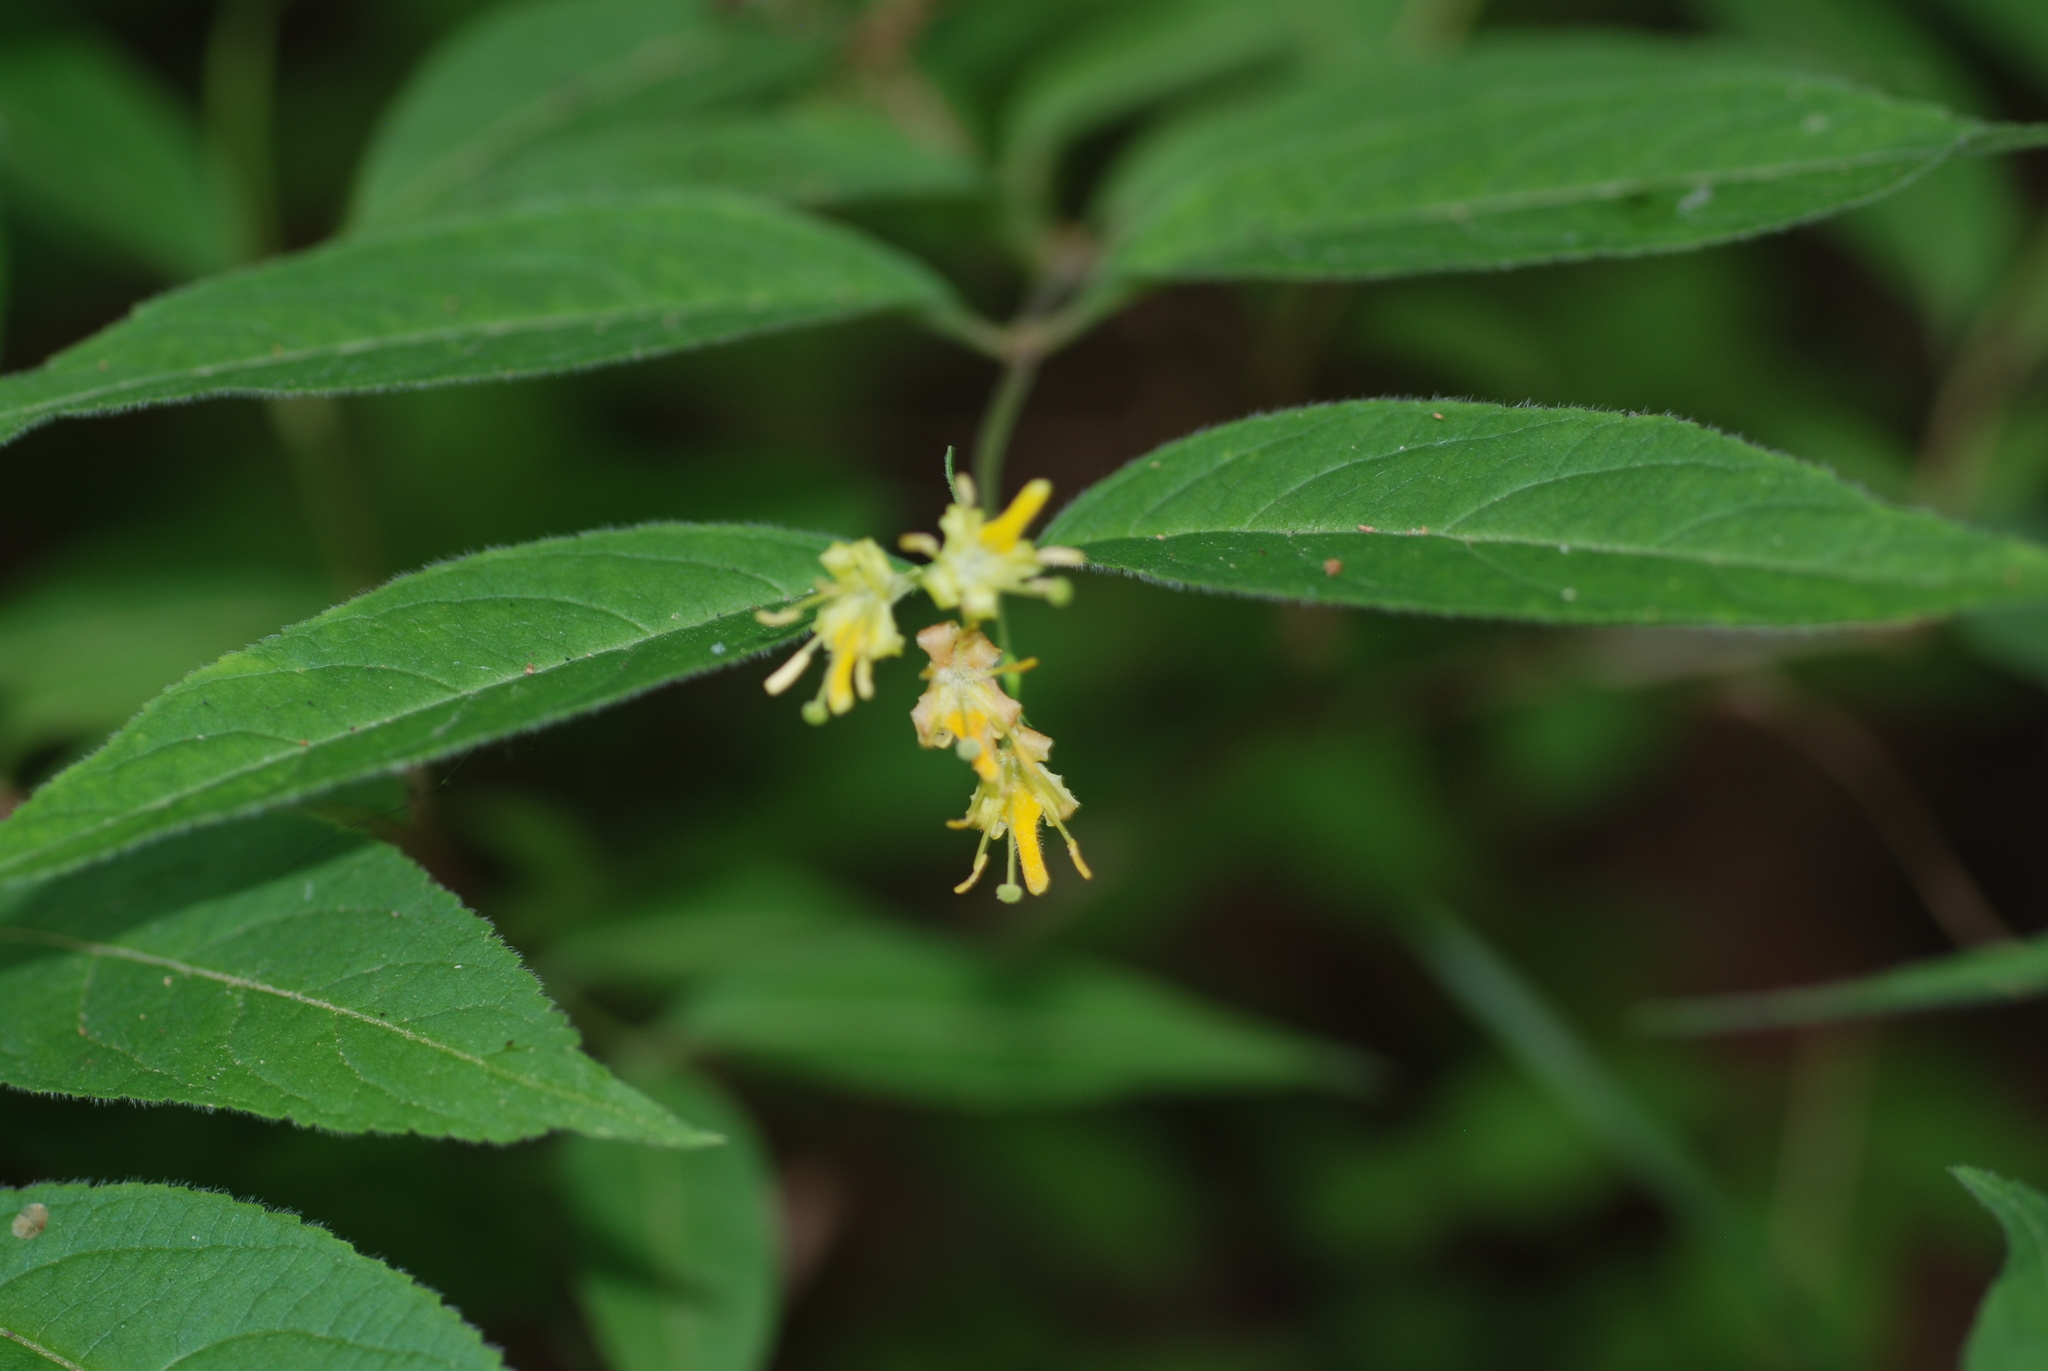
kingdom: Plantae
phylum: Tracheophyta
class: Magnoliopsida
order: Dipsacales
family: Caprifoliaceae
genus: Diervilla
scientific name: Diervilla lonicera
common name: Bush-honeysuckle
